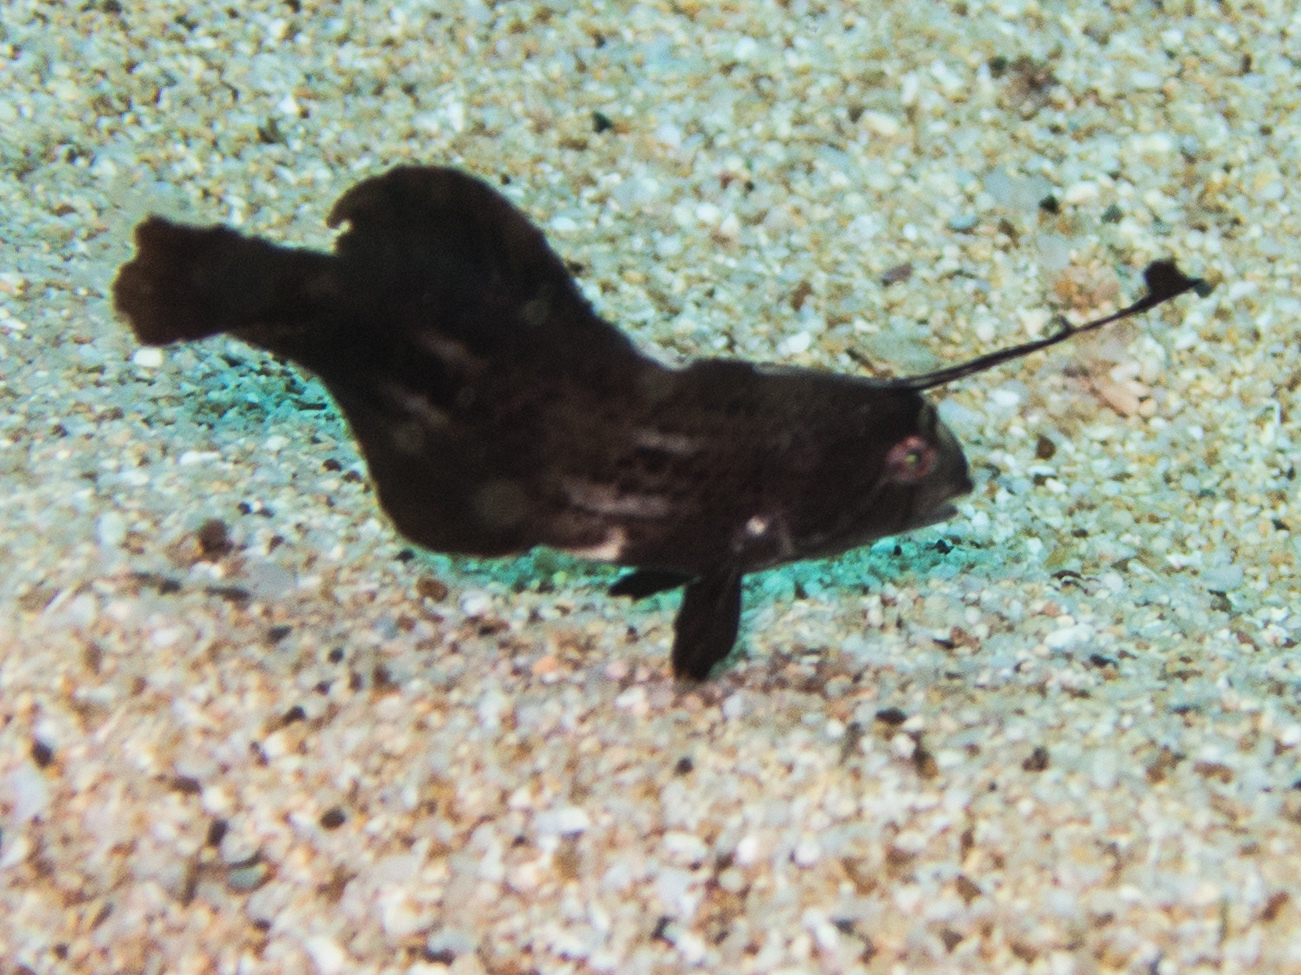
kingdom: Animalia
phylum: Chordata
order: Perciformes
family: Labridae
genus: Iniistius
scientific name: Iniistius pavo
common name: Peacock wrasse
